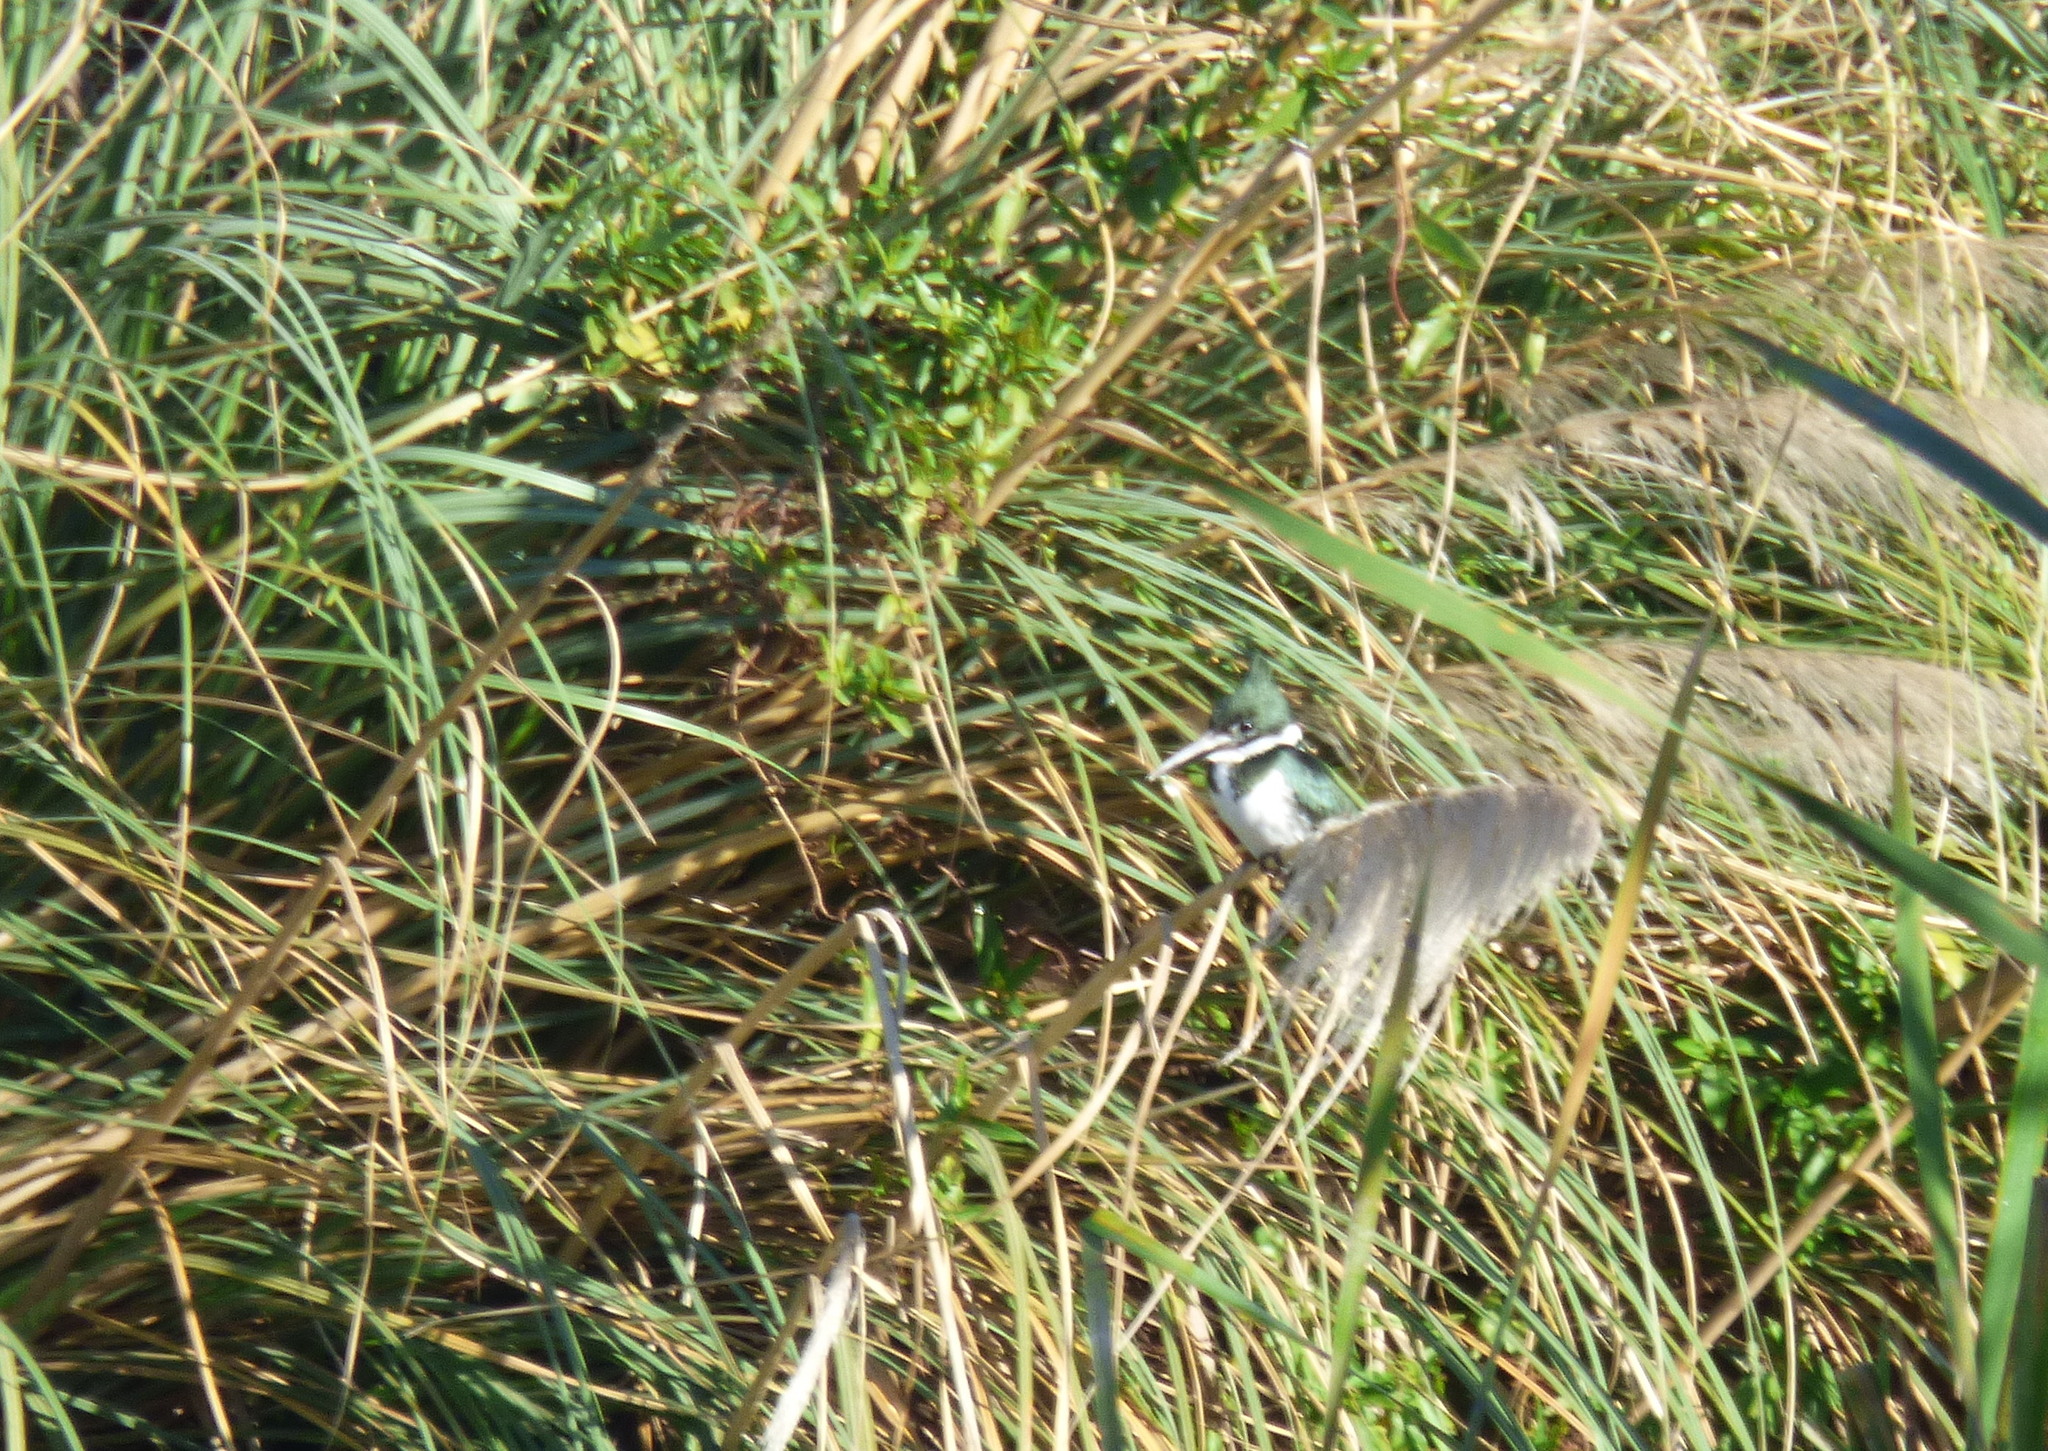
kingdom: Animalia
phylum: Chordata
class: Aves
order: Coraciiformes
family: Alcedinidae
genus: Chloroceryle
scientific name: Chloroceryle amazona
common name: Amazon kingfisher
